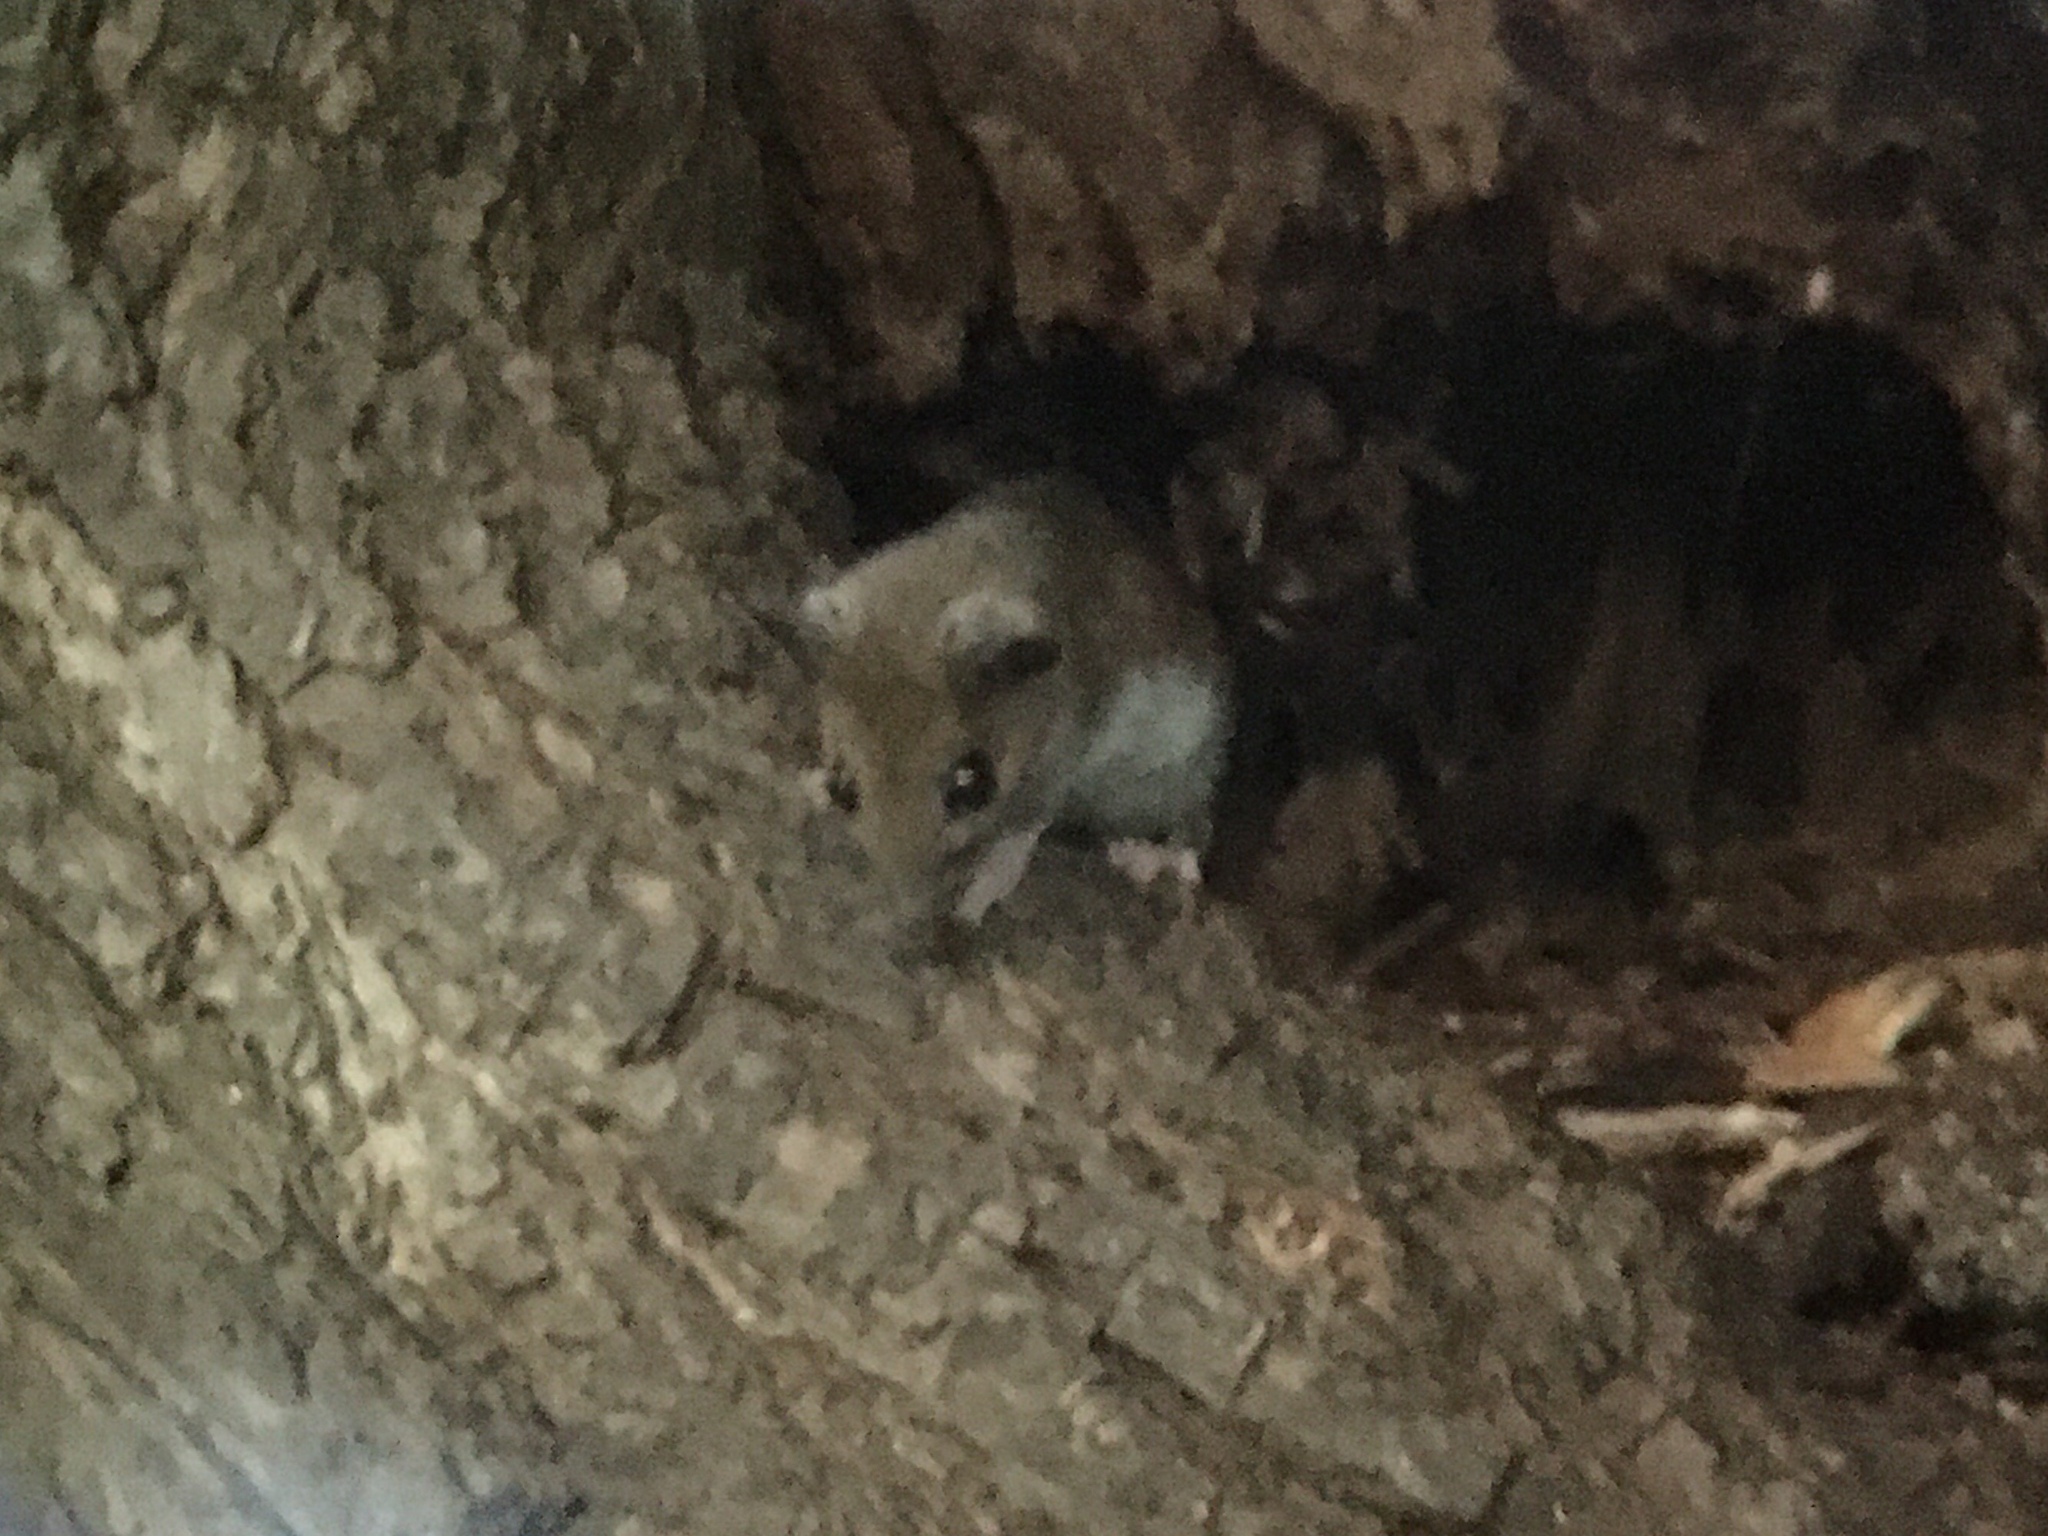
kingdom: Animalia
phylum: Chordata
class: Mammalia
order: Rodentia
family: Cricetidae
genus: Peromyscus
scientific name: Peromyscus leucopus
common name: White-footed deermouse
